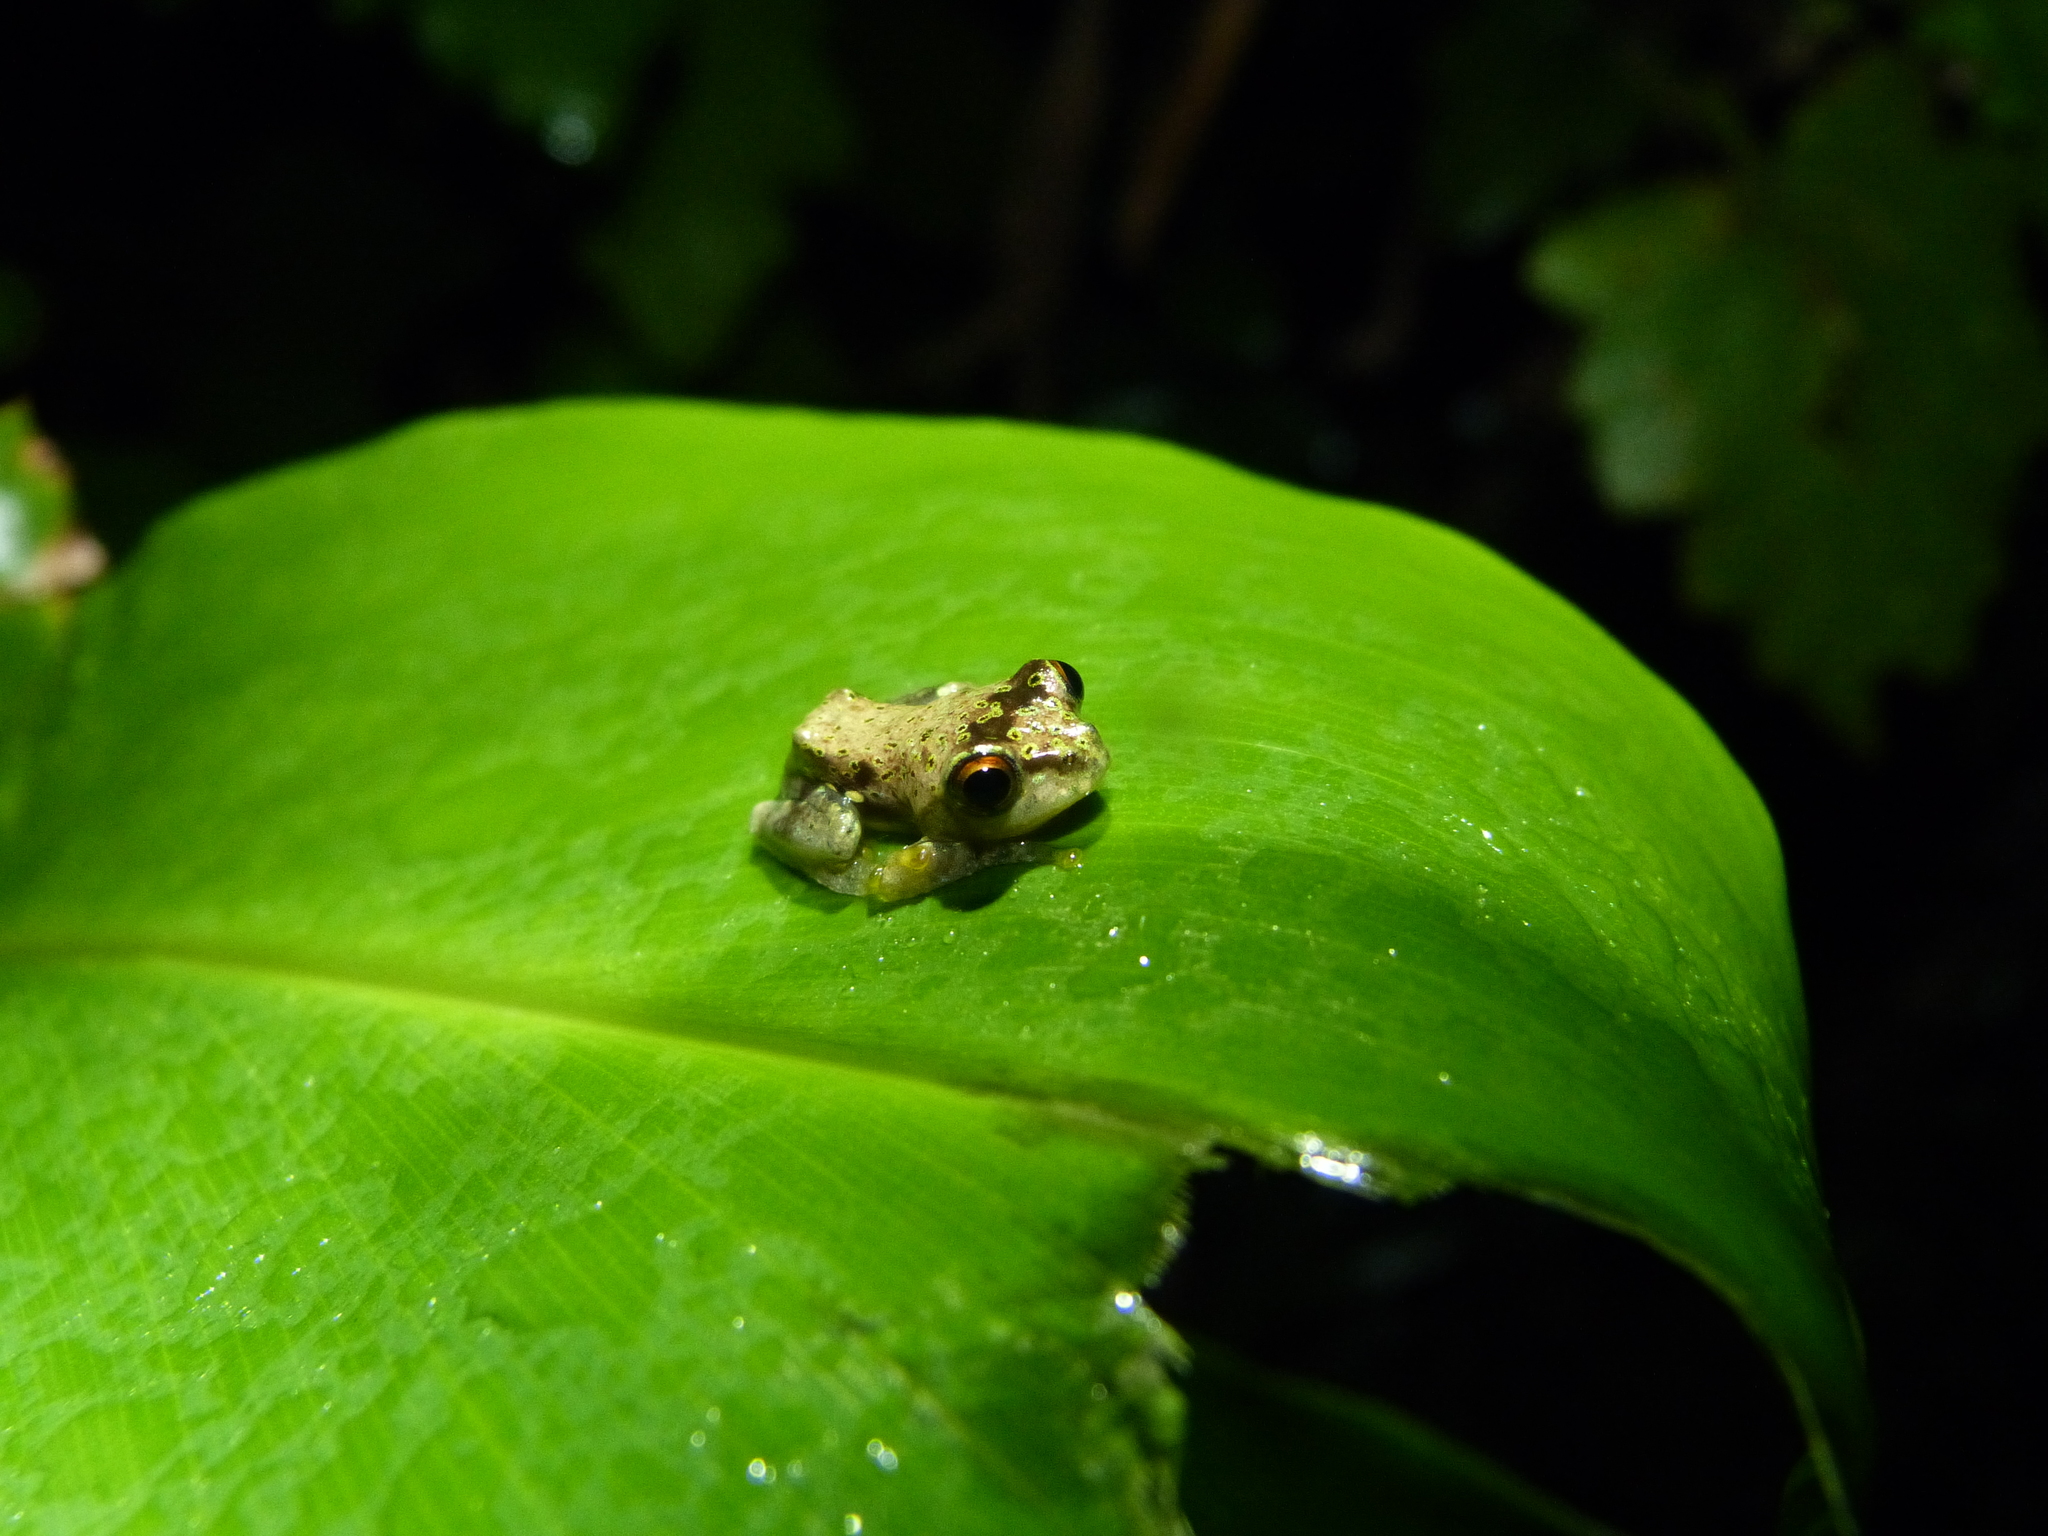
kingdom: Animalia
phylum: Chordata
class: Amphibia
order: Anura
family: Mantellidae
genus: Boophis
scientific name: Boophis idae
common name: Ida's bright-eyed frog
